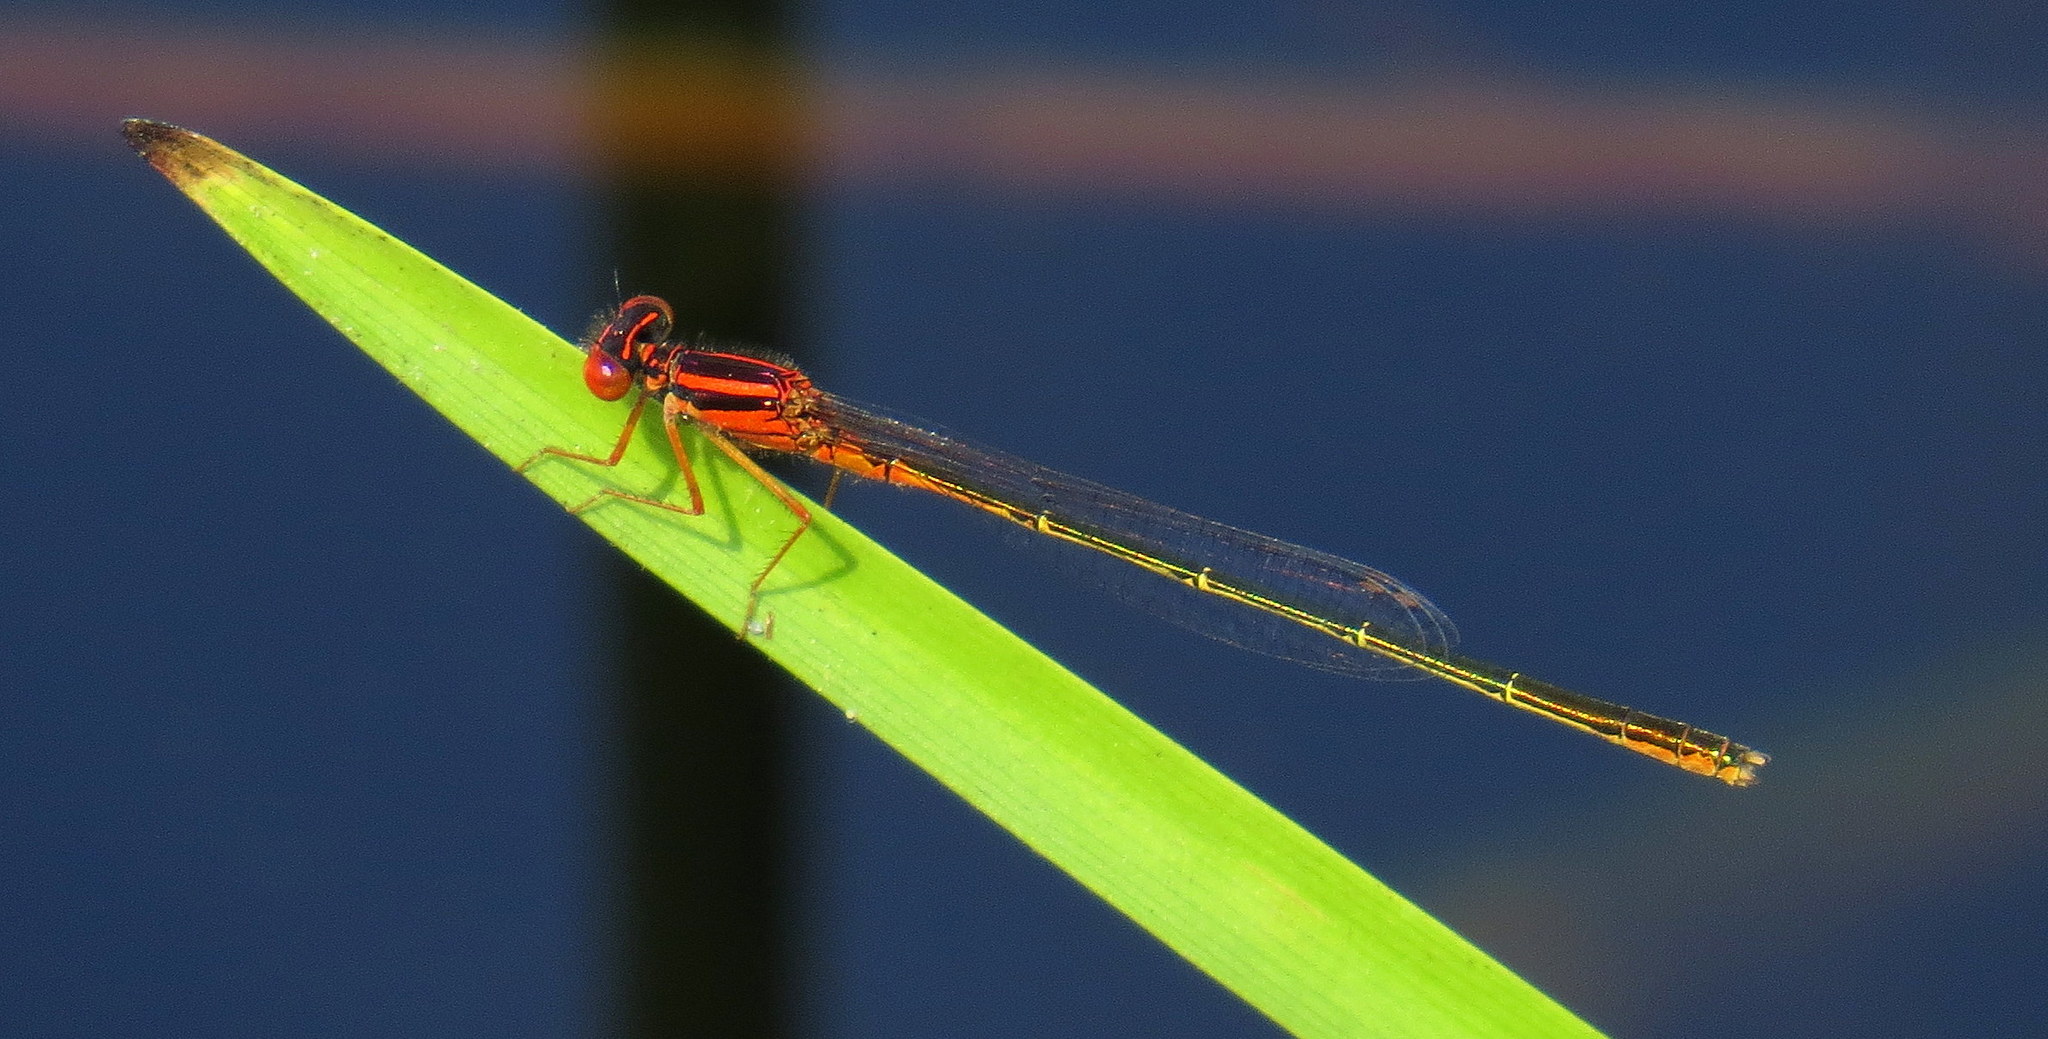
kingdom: Animalia
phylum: Arthropoda
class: Insecta
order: Odonata
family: Coenagrionidae
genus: Enallagma
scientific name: Enallagma pictum
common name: Scarlet bluet
